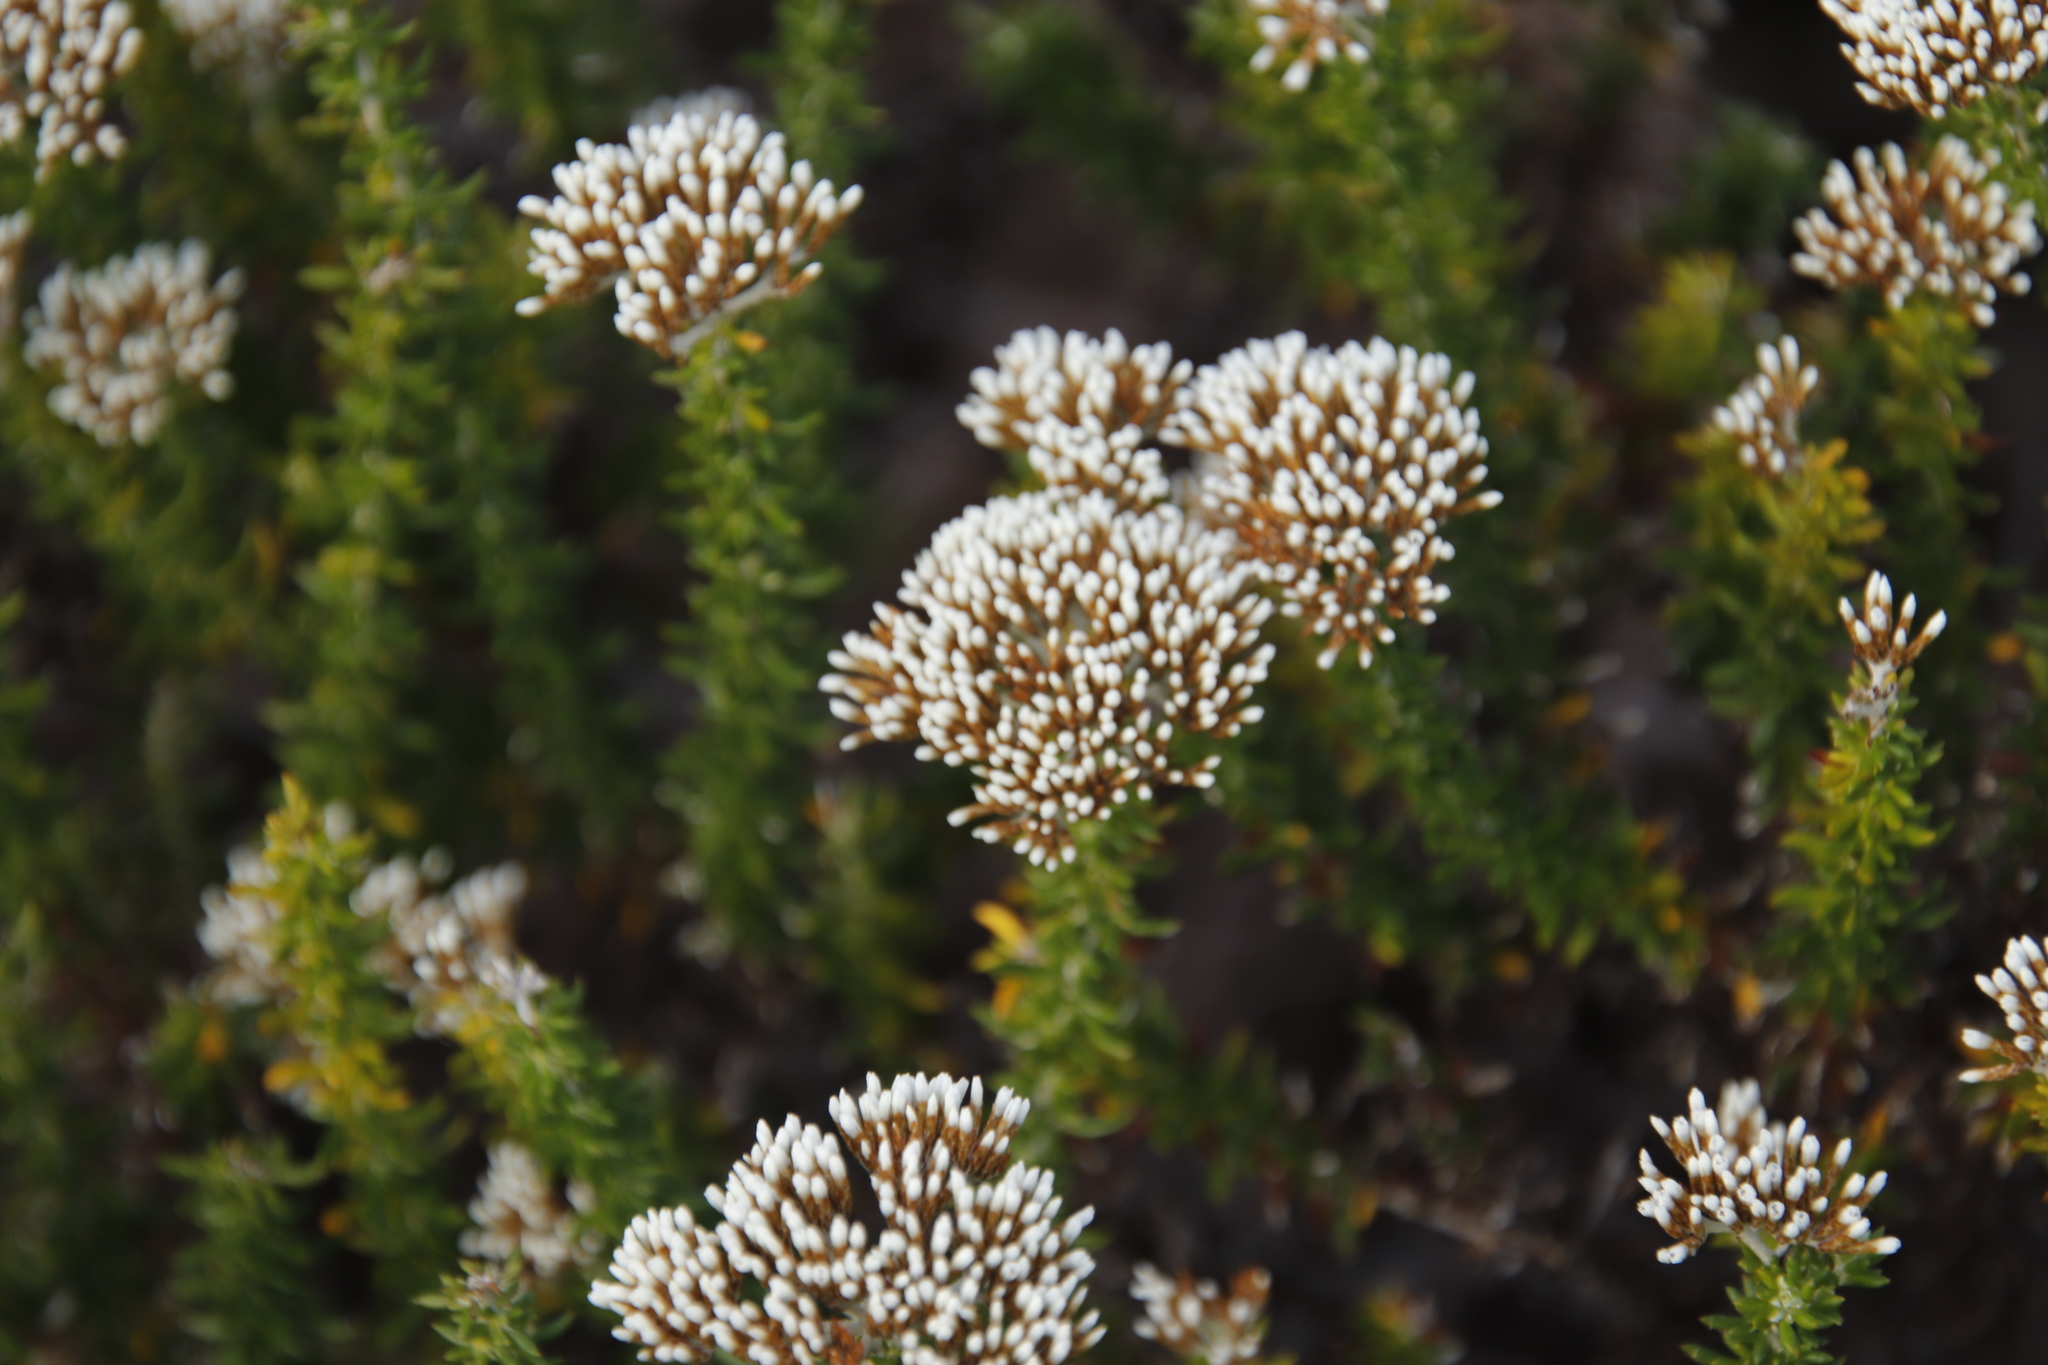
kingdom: Plantae
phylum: Tracheophyta
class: Magnoliopsida
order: Asterales
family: Asteraceae
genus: Metalasia
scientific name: Metalasia densa
